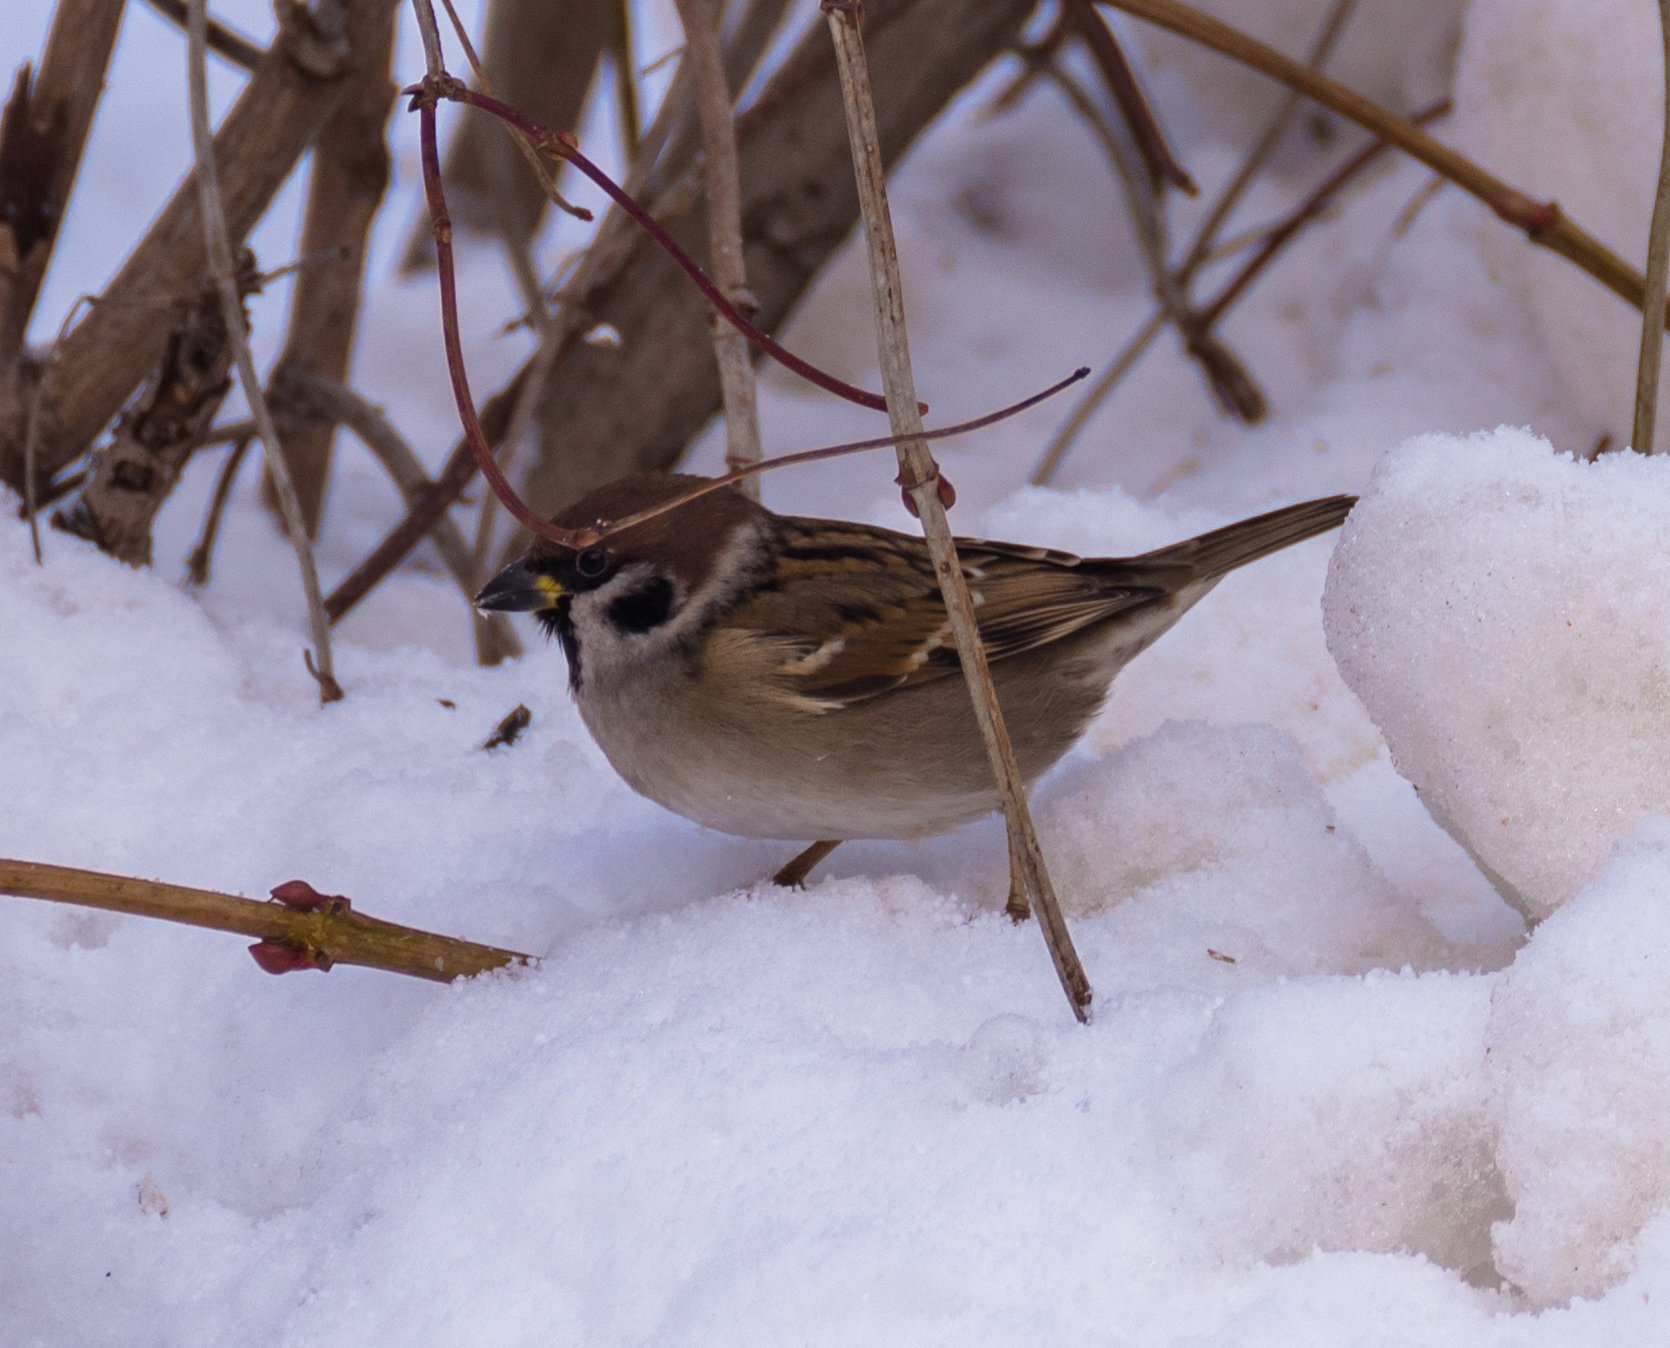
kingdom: Animalia
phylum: Chordata
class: Aves
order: Passeriformes
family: Passeridae
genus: Passer
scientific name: Passer montanus
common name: Eurasian tree sparrow
